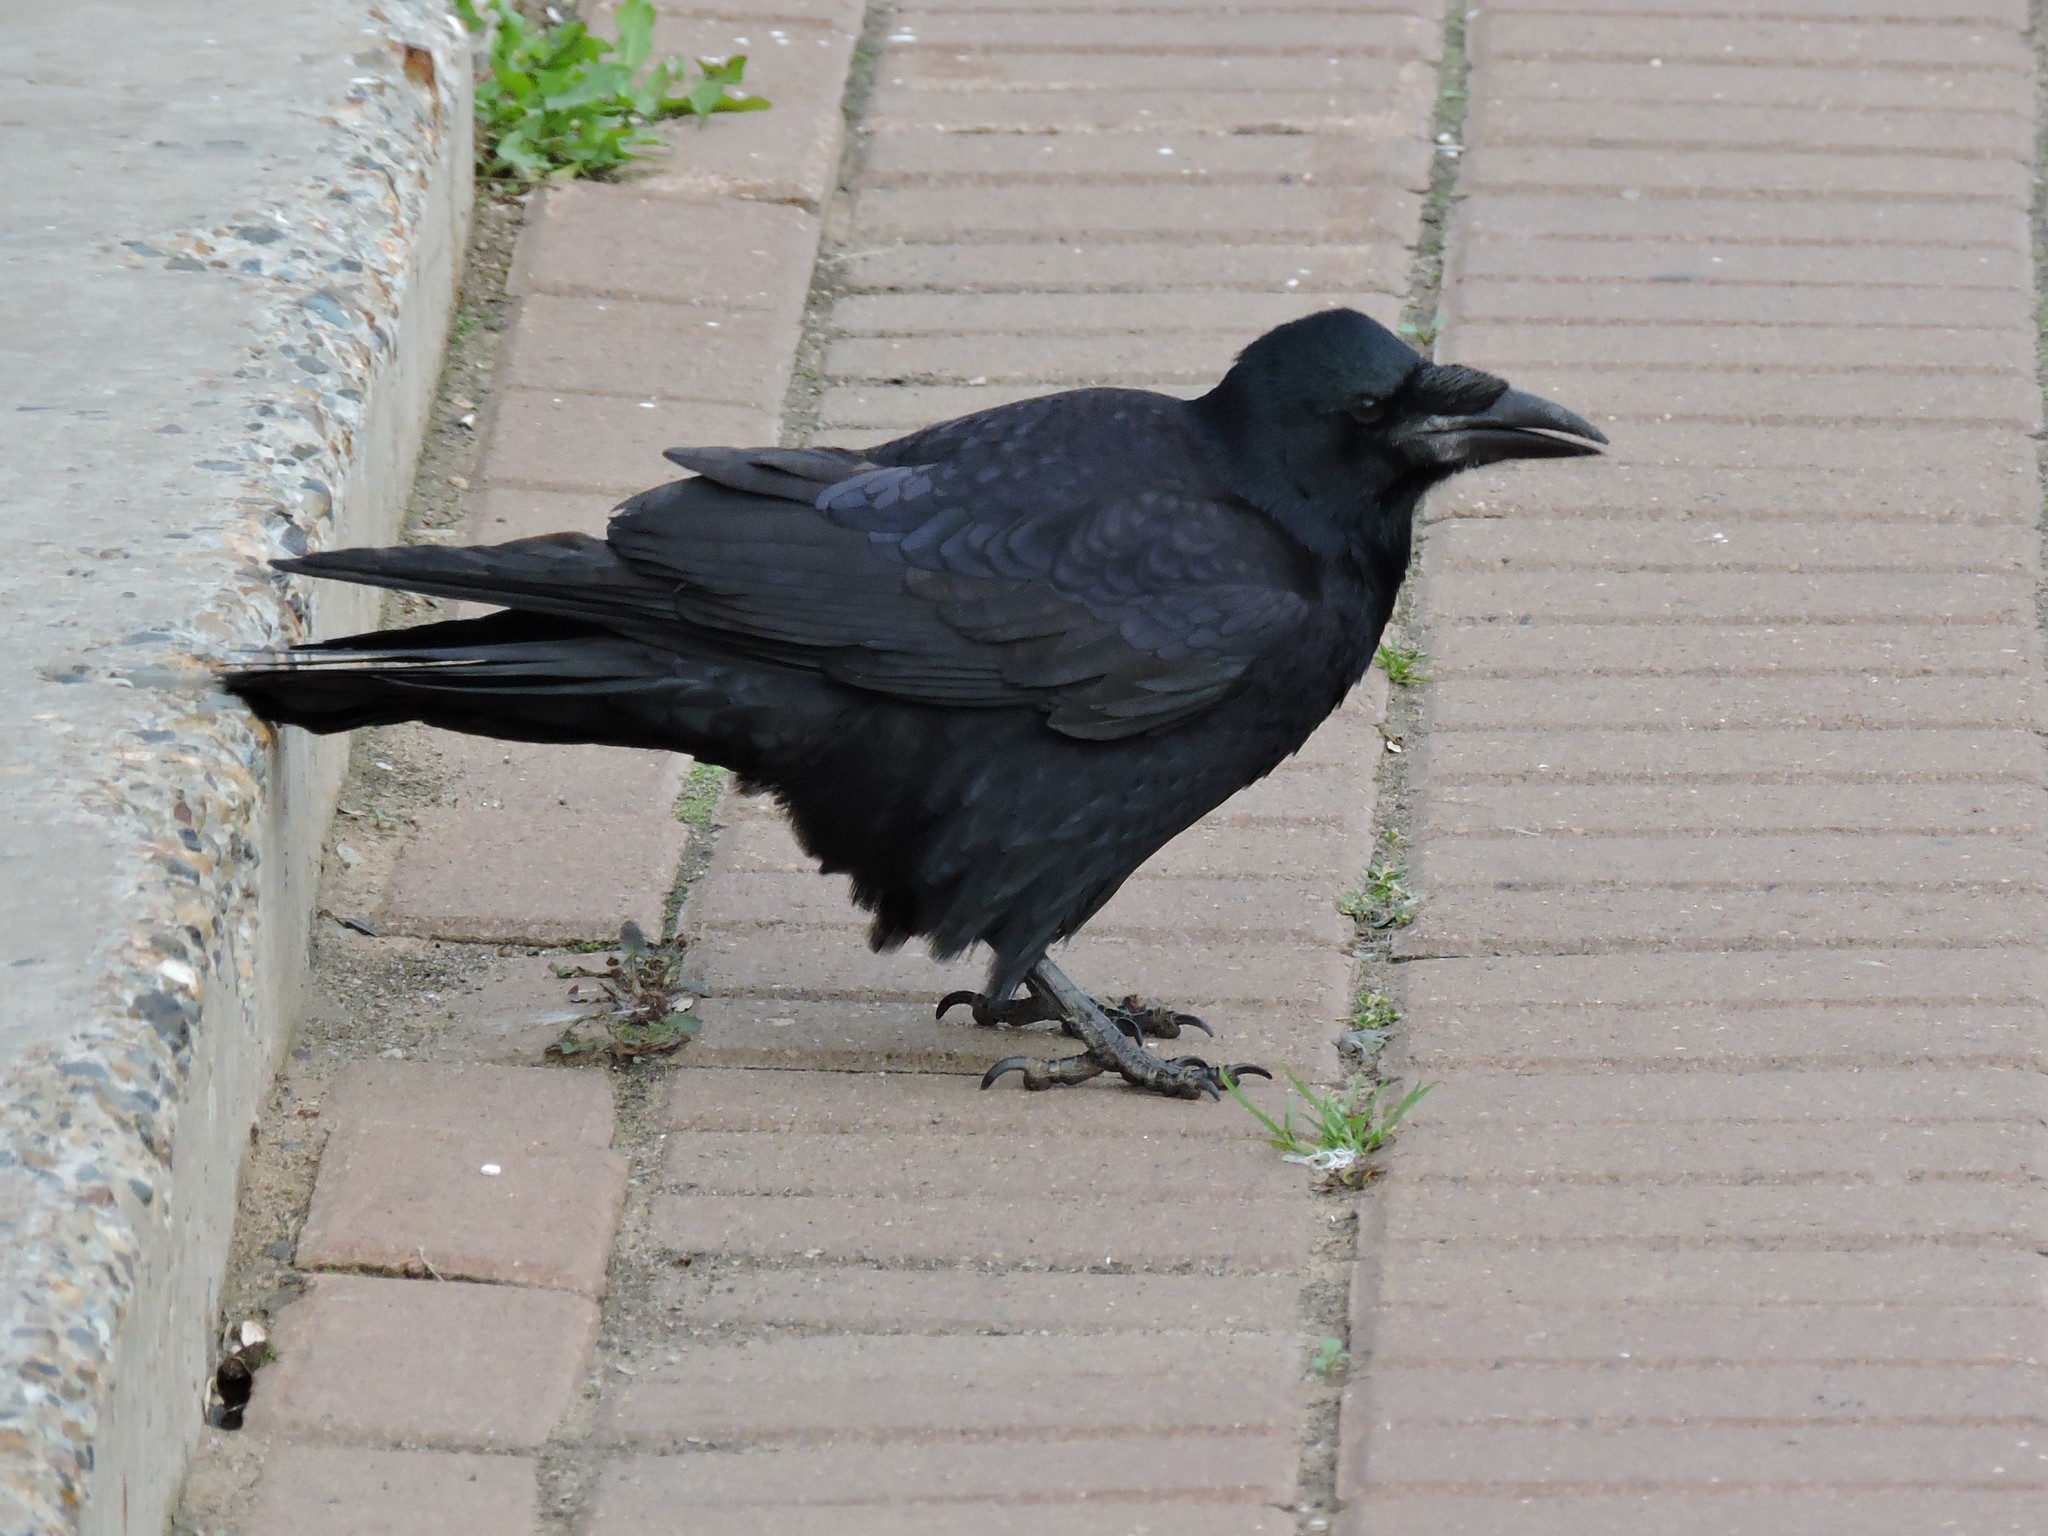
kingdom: Animalia
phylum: Chordata
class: Aves
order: Passeriformes
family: Corvidae
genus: Corvus
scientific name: Corvus frugilegus
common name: Rook
